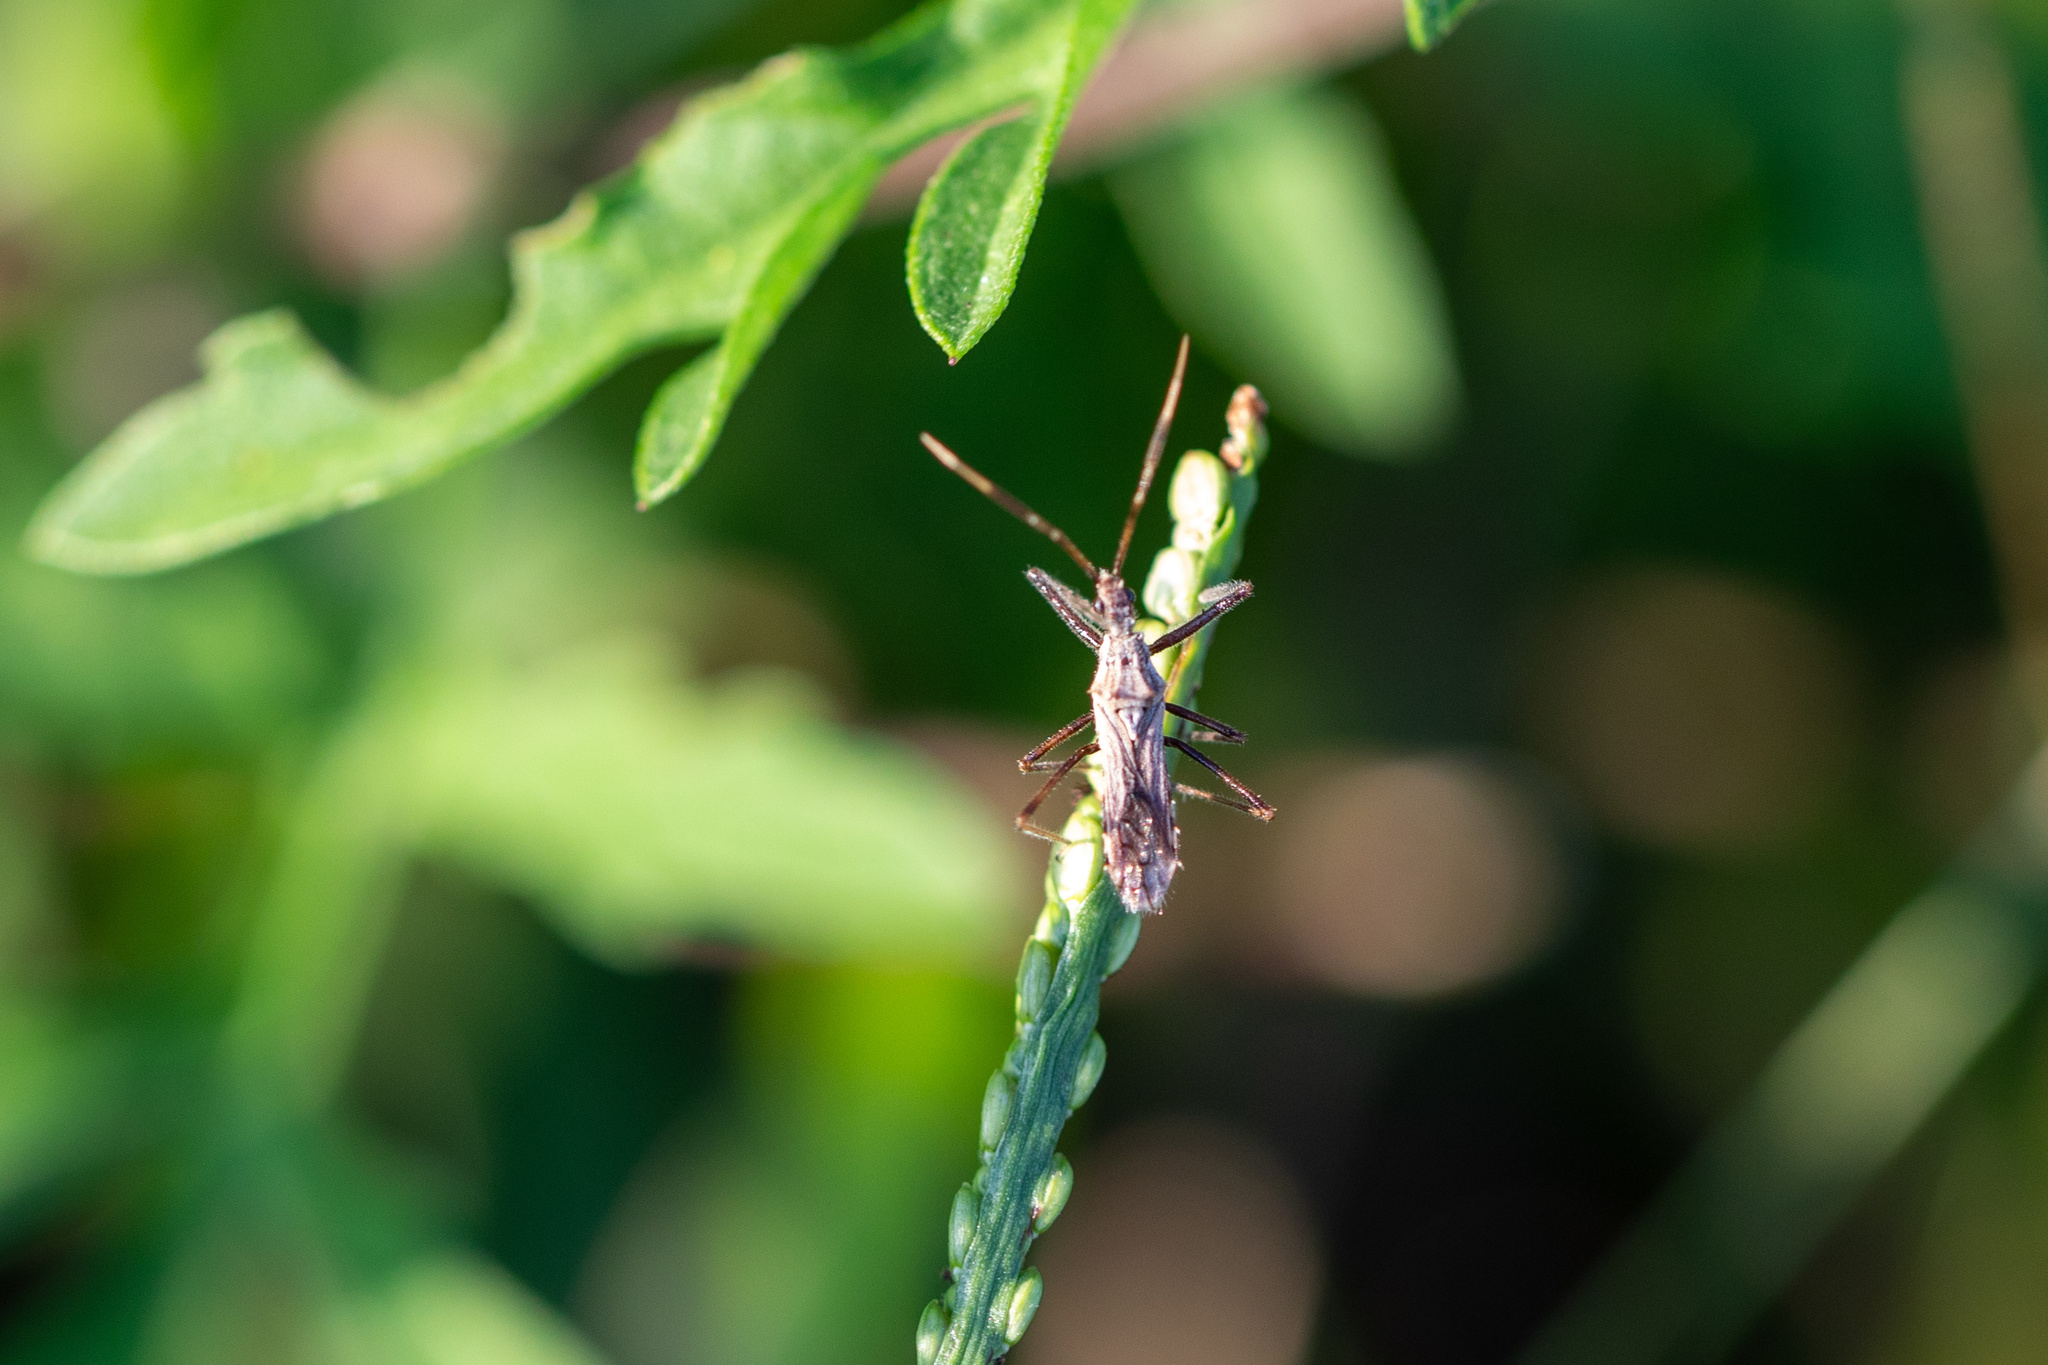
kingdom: Animalia
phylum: Arthropoda
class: Insecta
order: Hemiptera
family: Reduviidae
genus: Atrachelus
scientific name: Atrachelus cinereus
